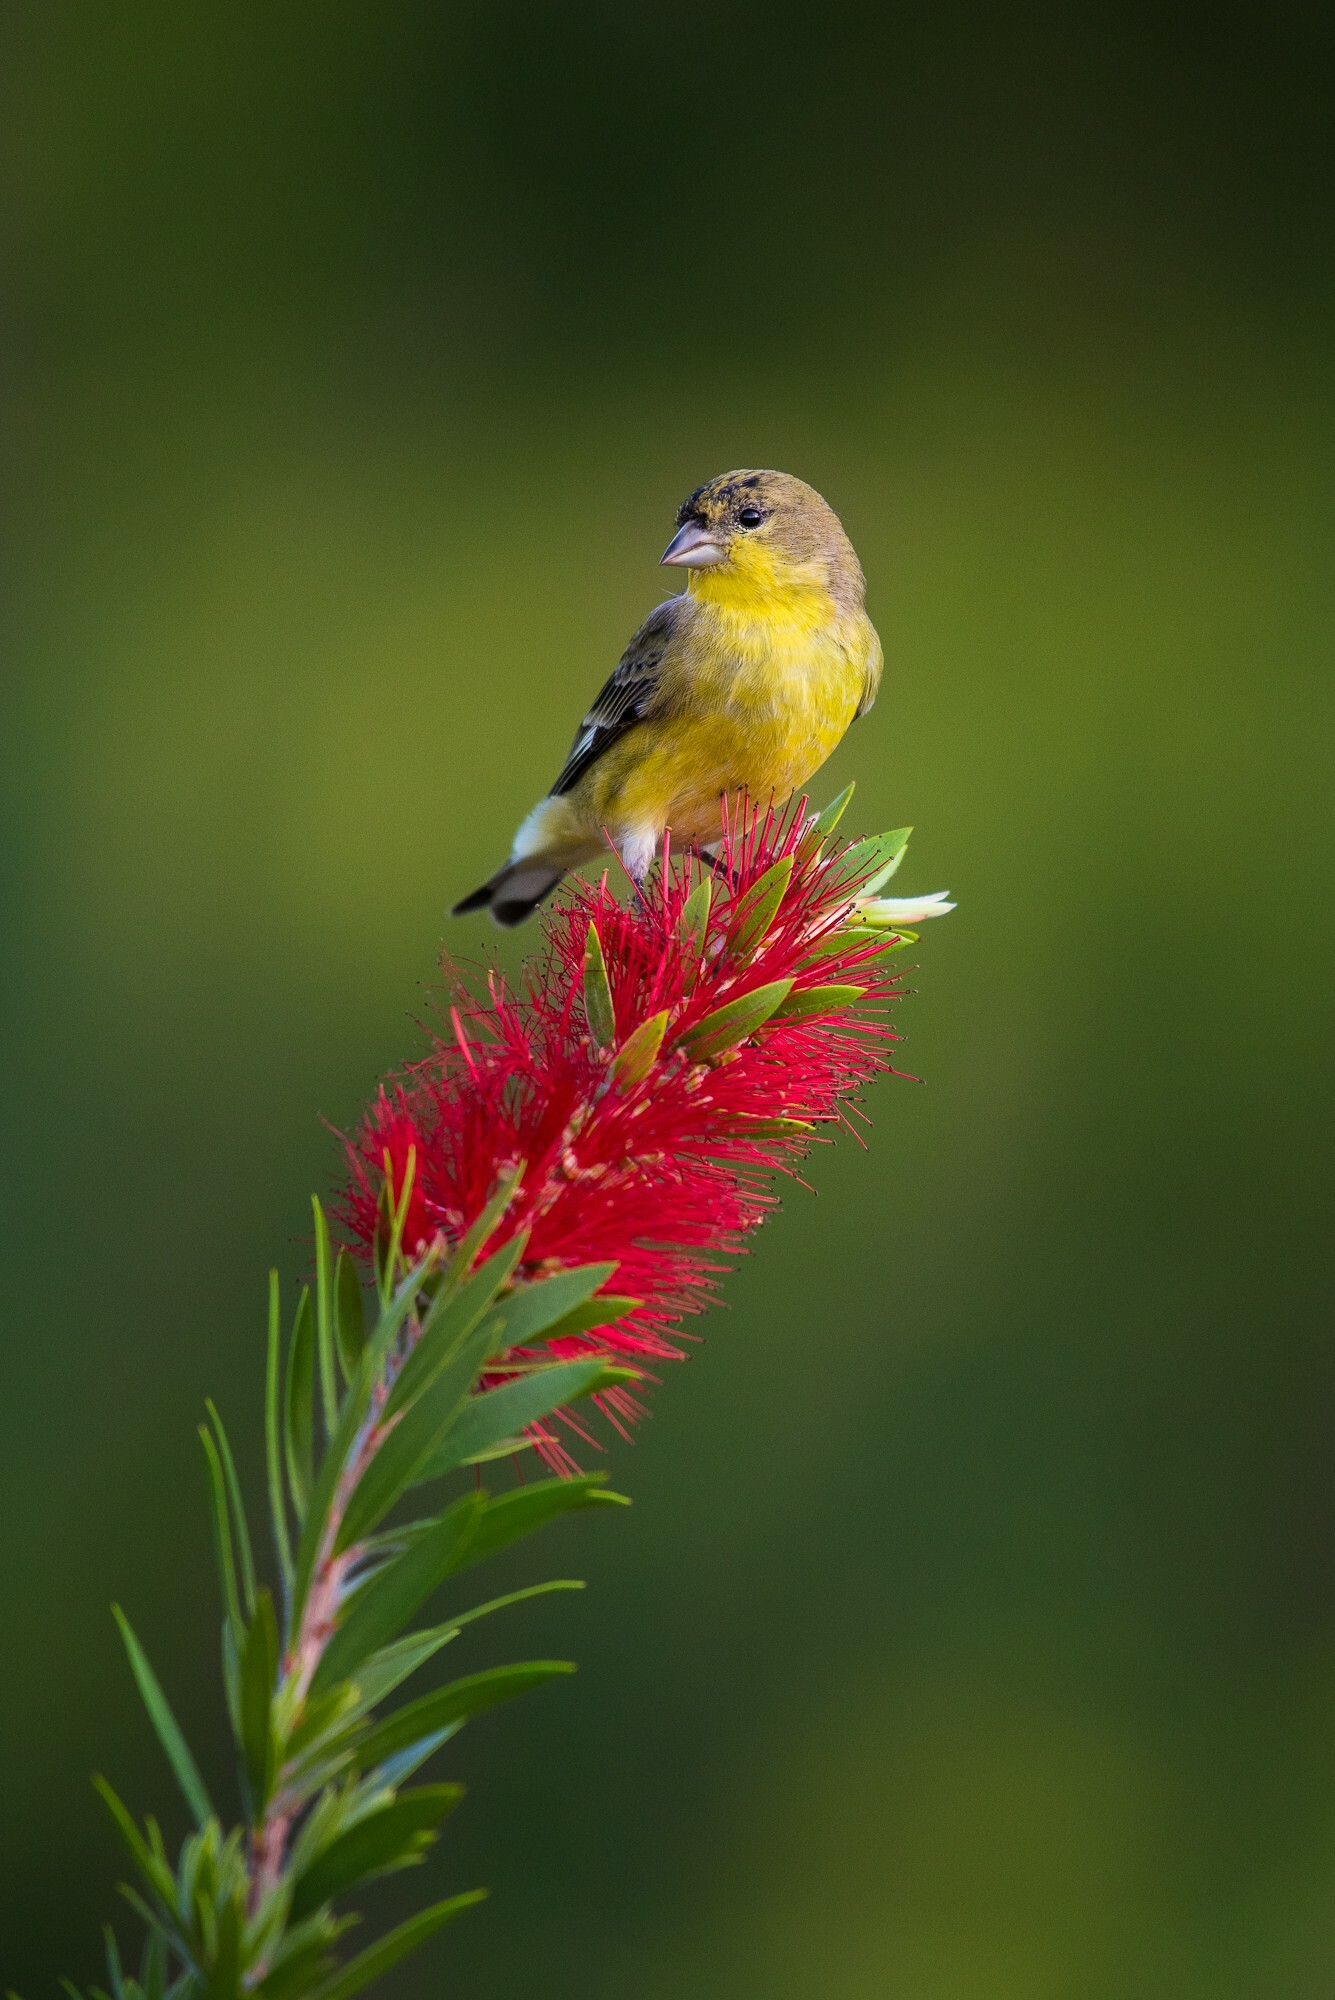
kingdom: Animalia
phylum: Chordata
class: Aves
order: Passeriformes
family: Fringillidae
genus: Spinus
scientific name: Spinus psaltria
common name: Lesser goldfinch
